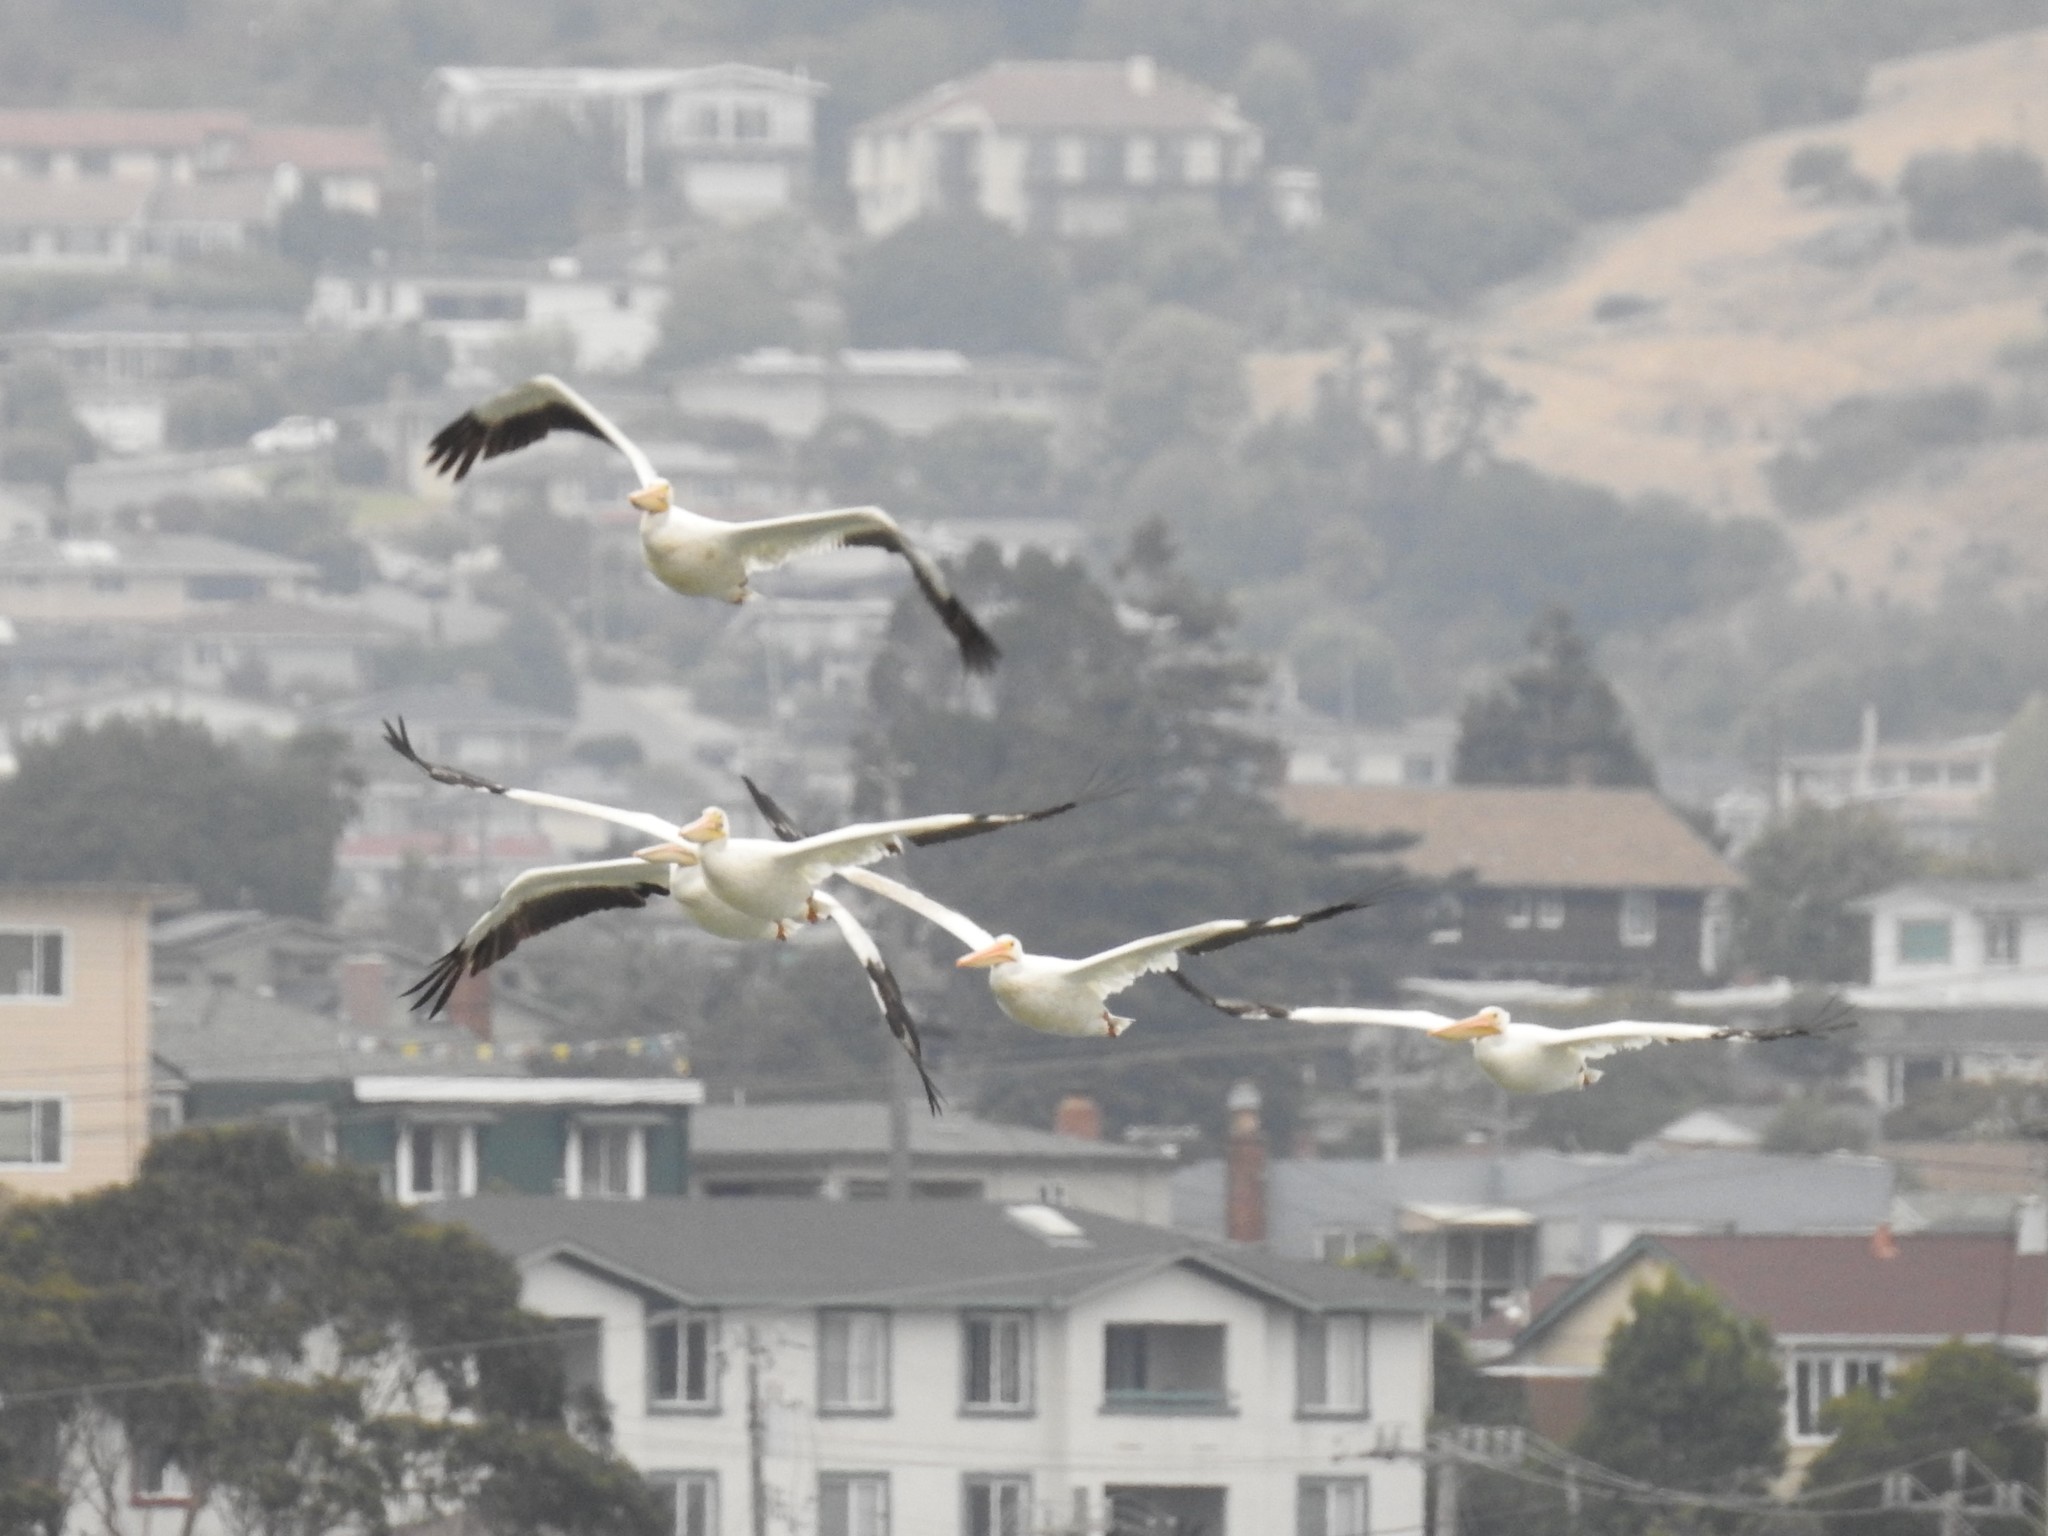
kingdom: Animalia
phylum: Chordata
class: Aves
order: Pelecaniformes
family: Pelecanidae
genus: Pelecanus
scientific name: Pelecanus erythrorhynchos
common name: American white pelican
